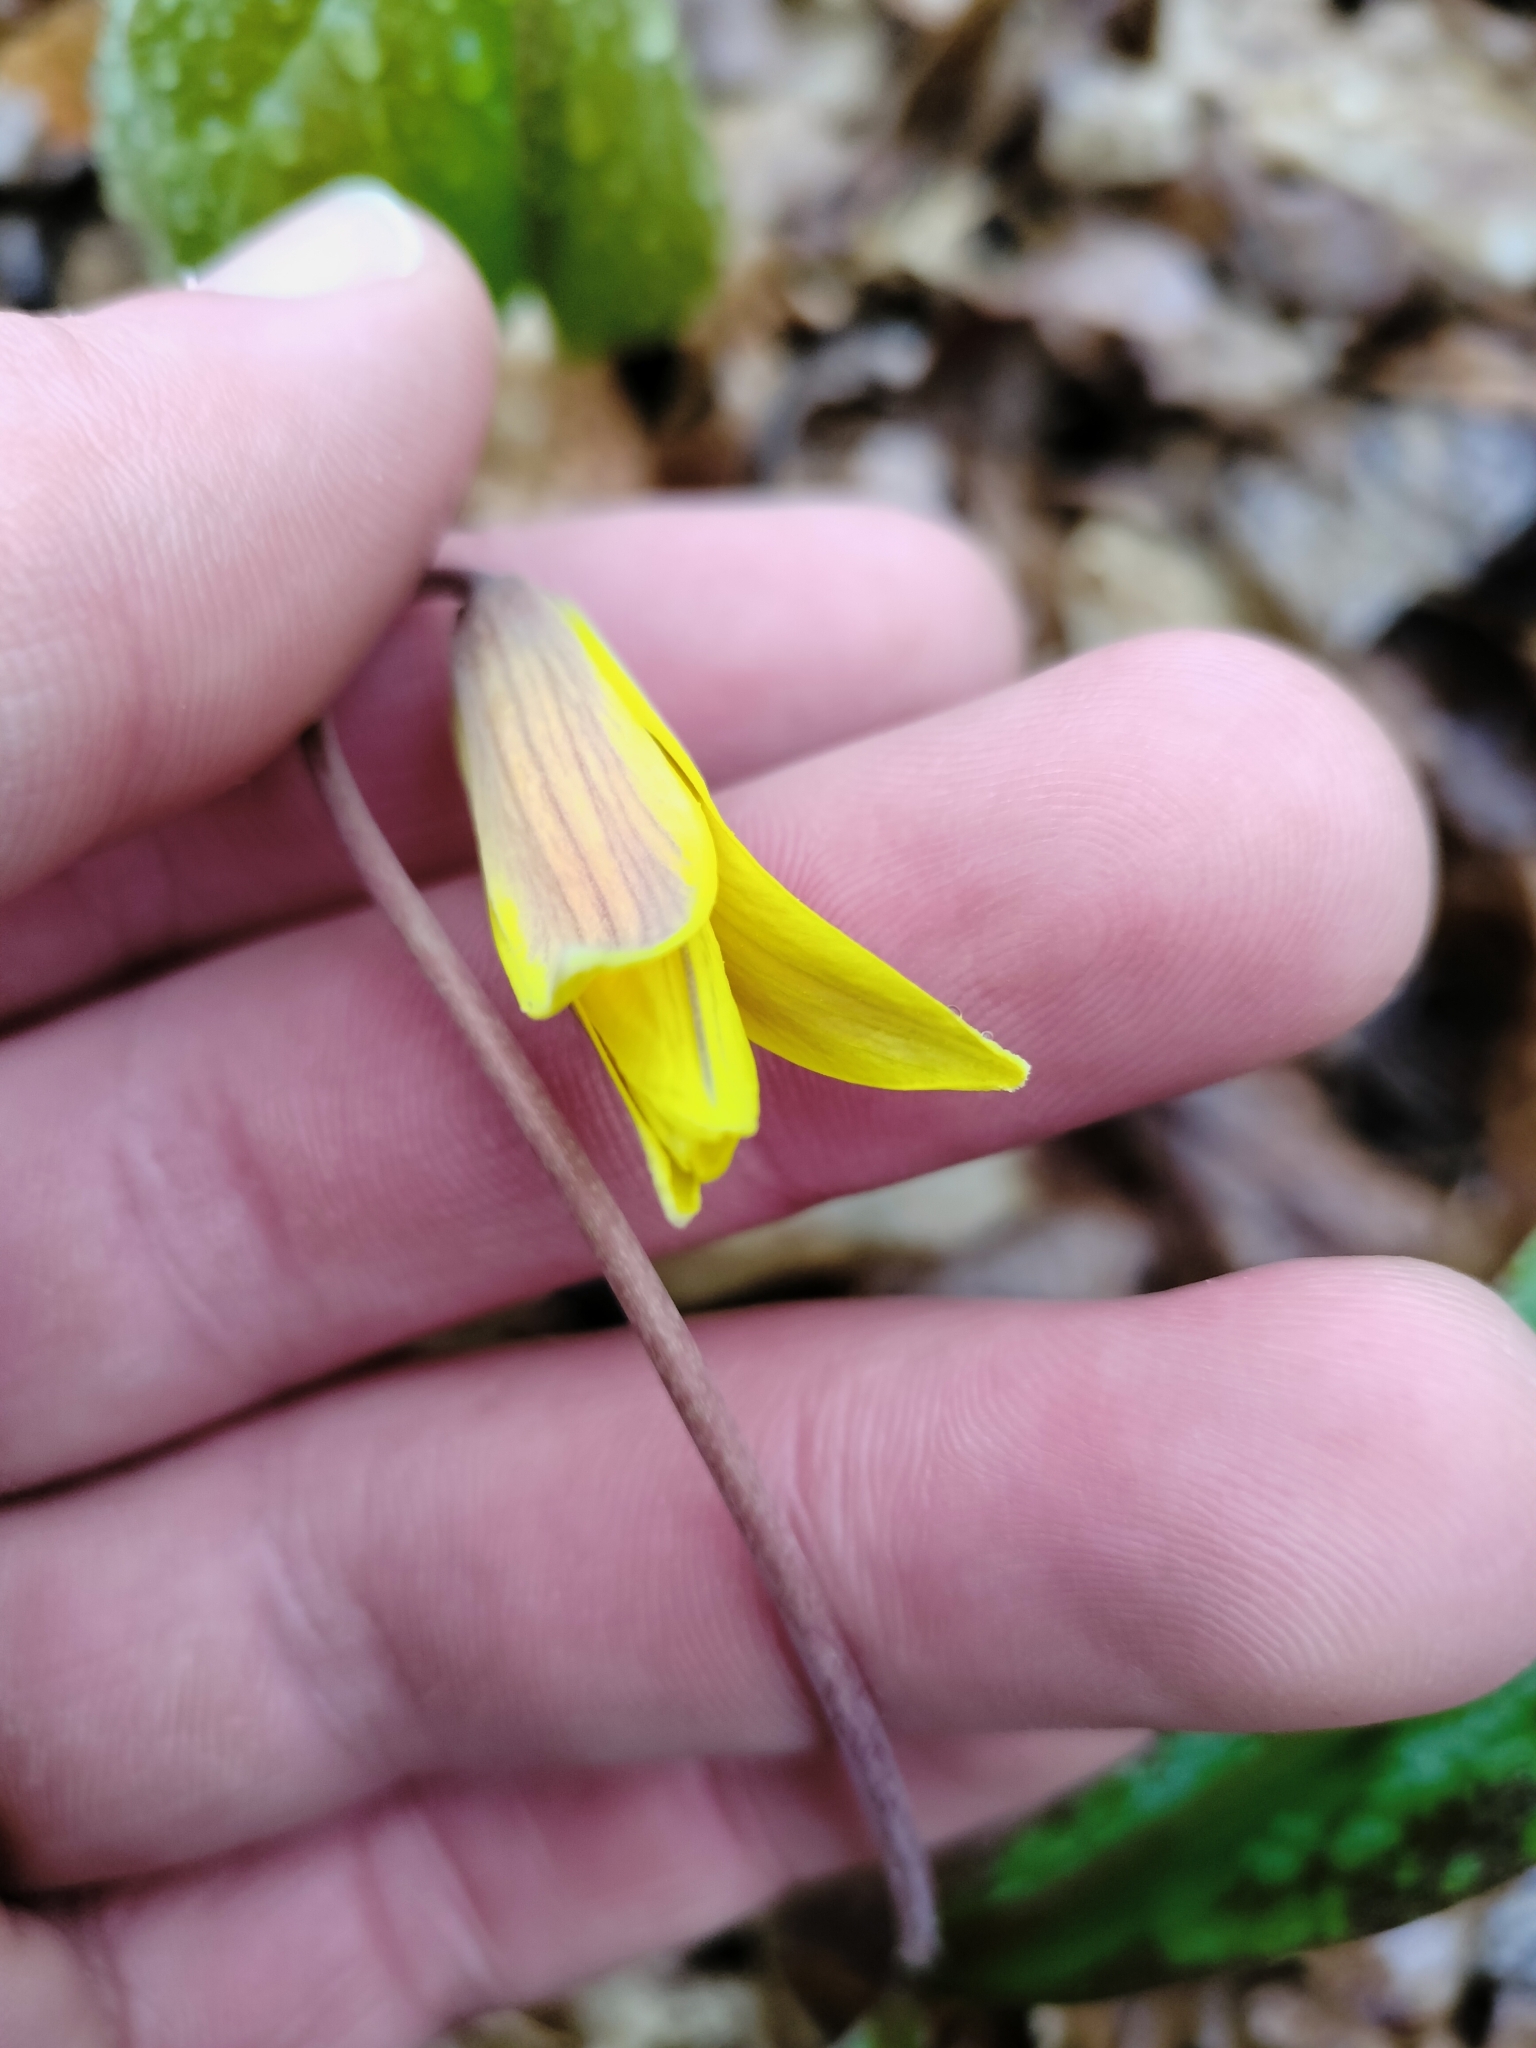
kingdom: Plantae
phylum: Tracheophyta
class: Liliopsida
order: Liliales
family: Liliaceae
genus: Erythronium
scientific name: Erythronium americanum
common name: Yellow adder's-tongue
